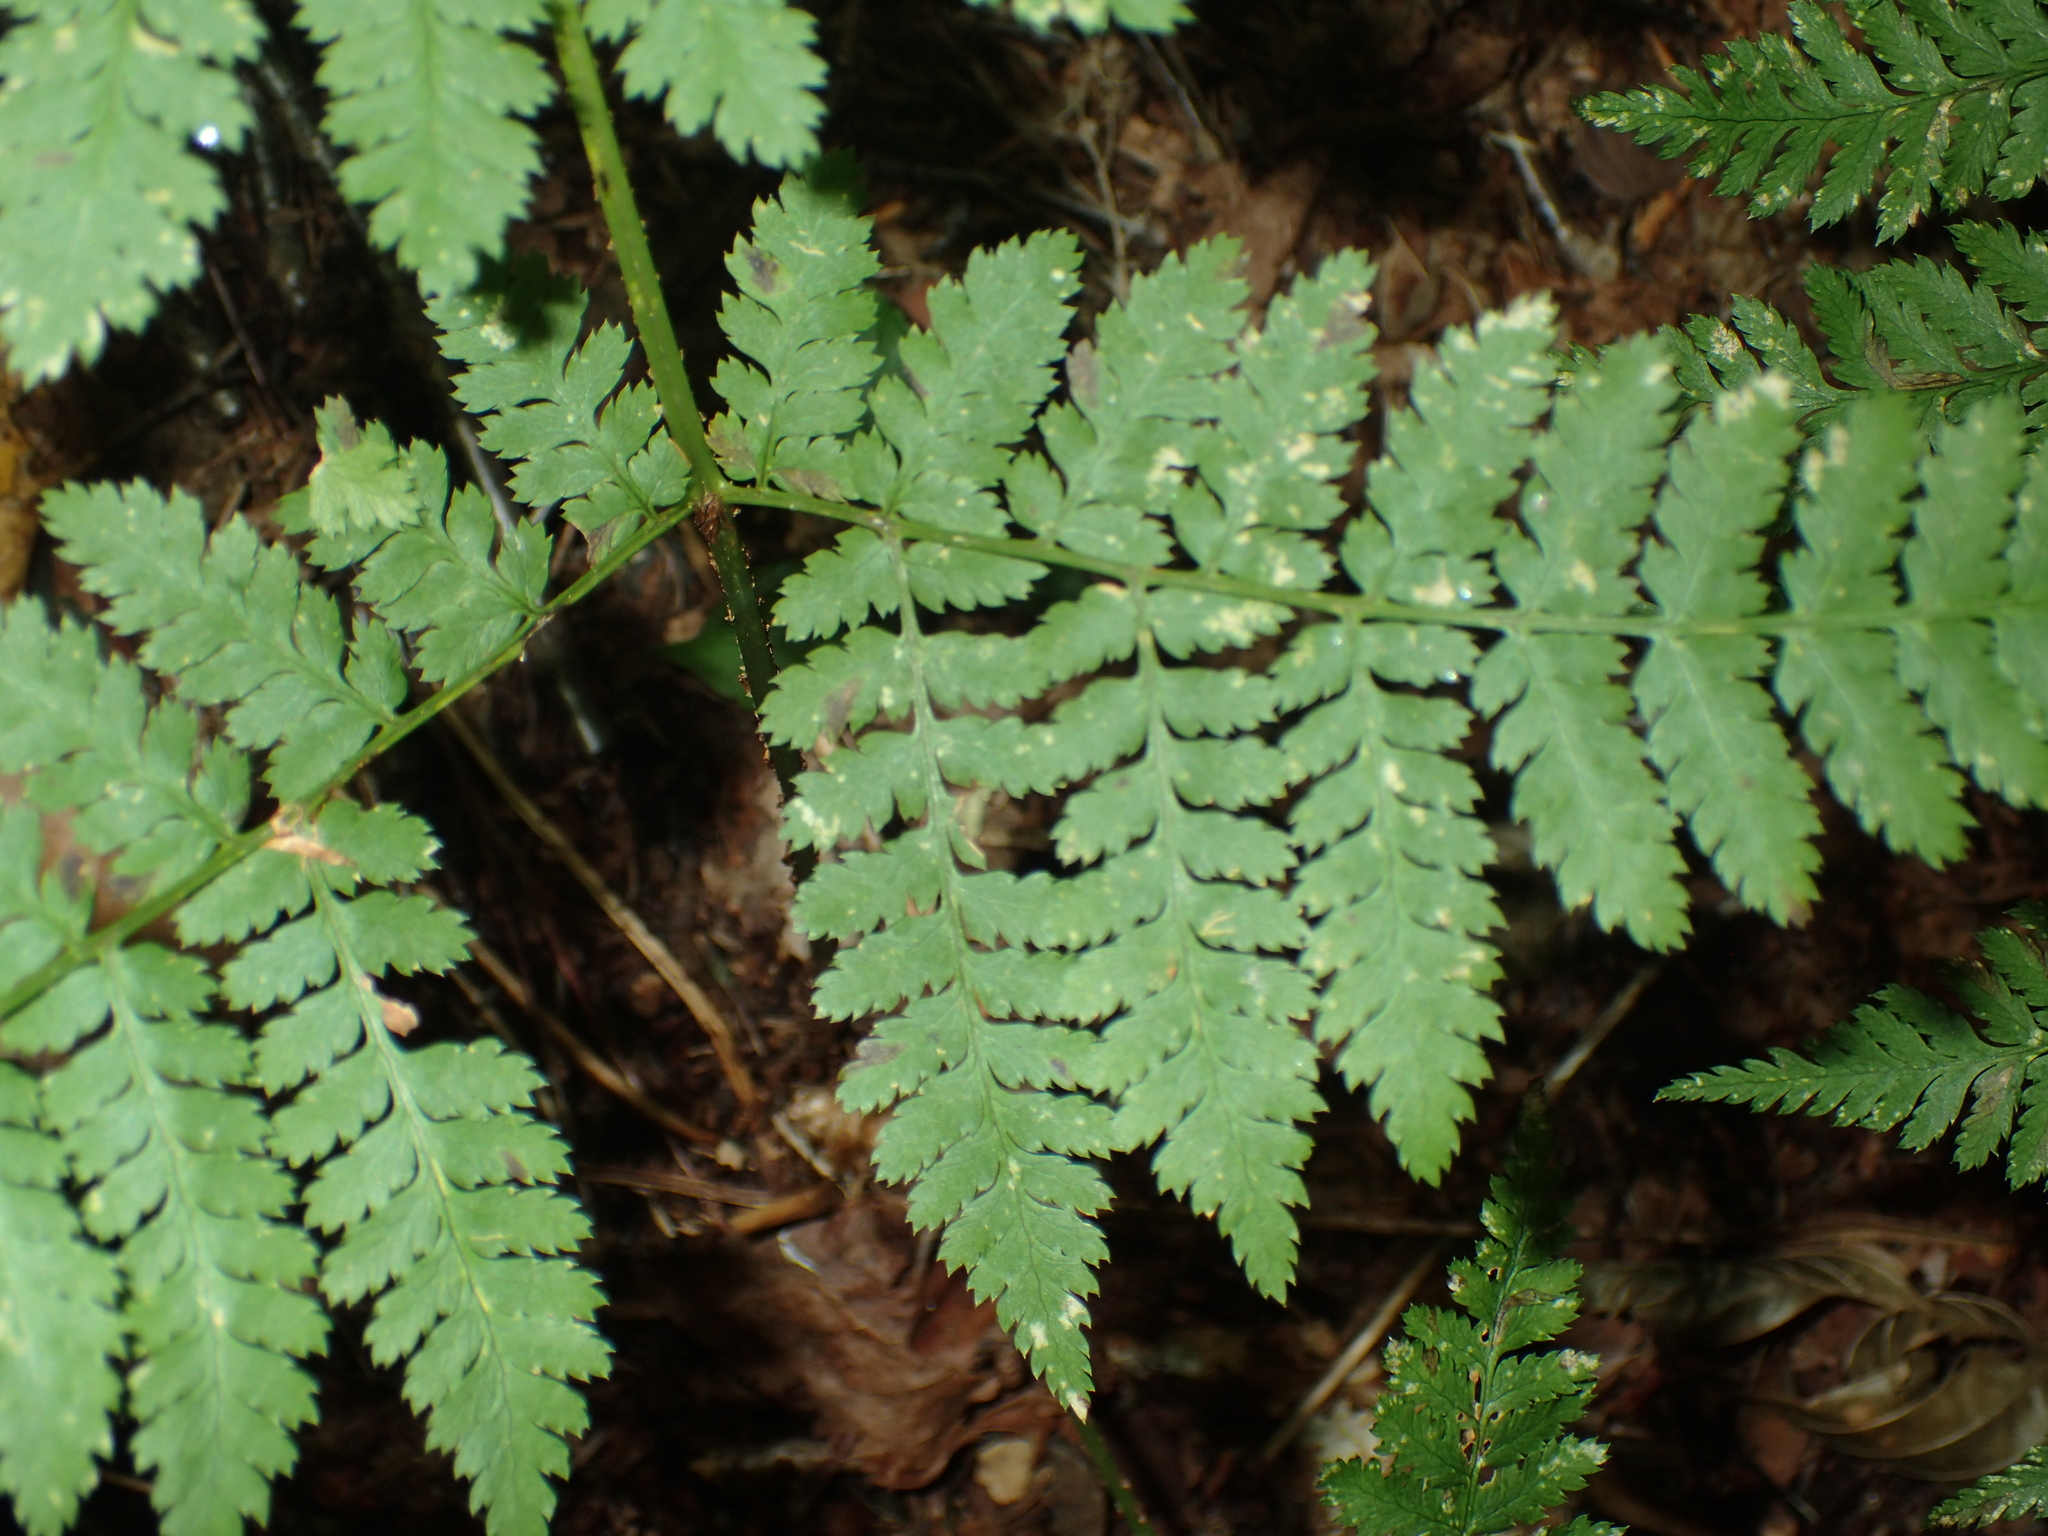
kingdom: Plantae
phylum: Tracheophyta
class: Polypodiopsida
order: Polypodiales
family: Dryopteridaceae
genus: Dryopteris
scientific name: Dryopteris campyloptera
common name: Mountain wood fern
